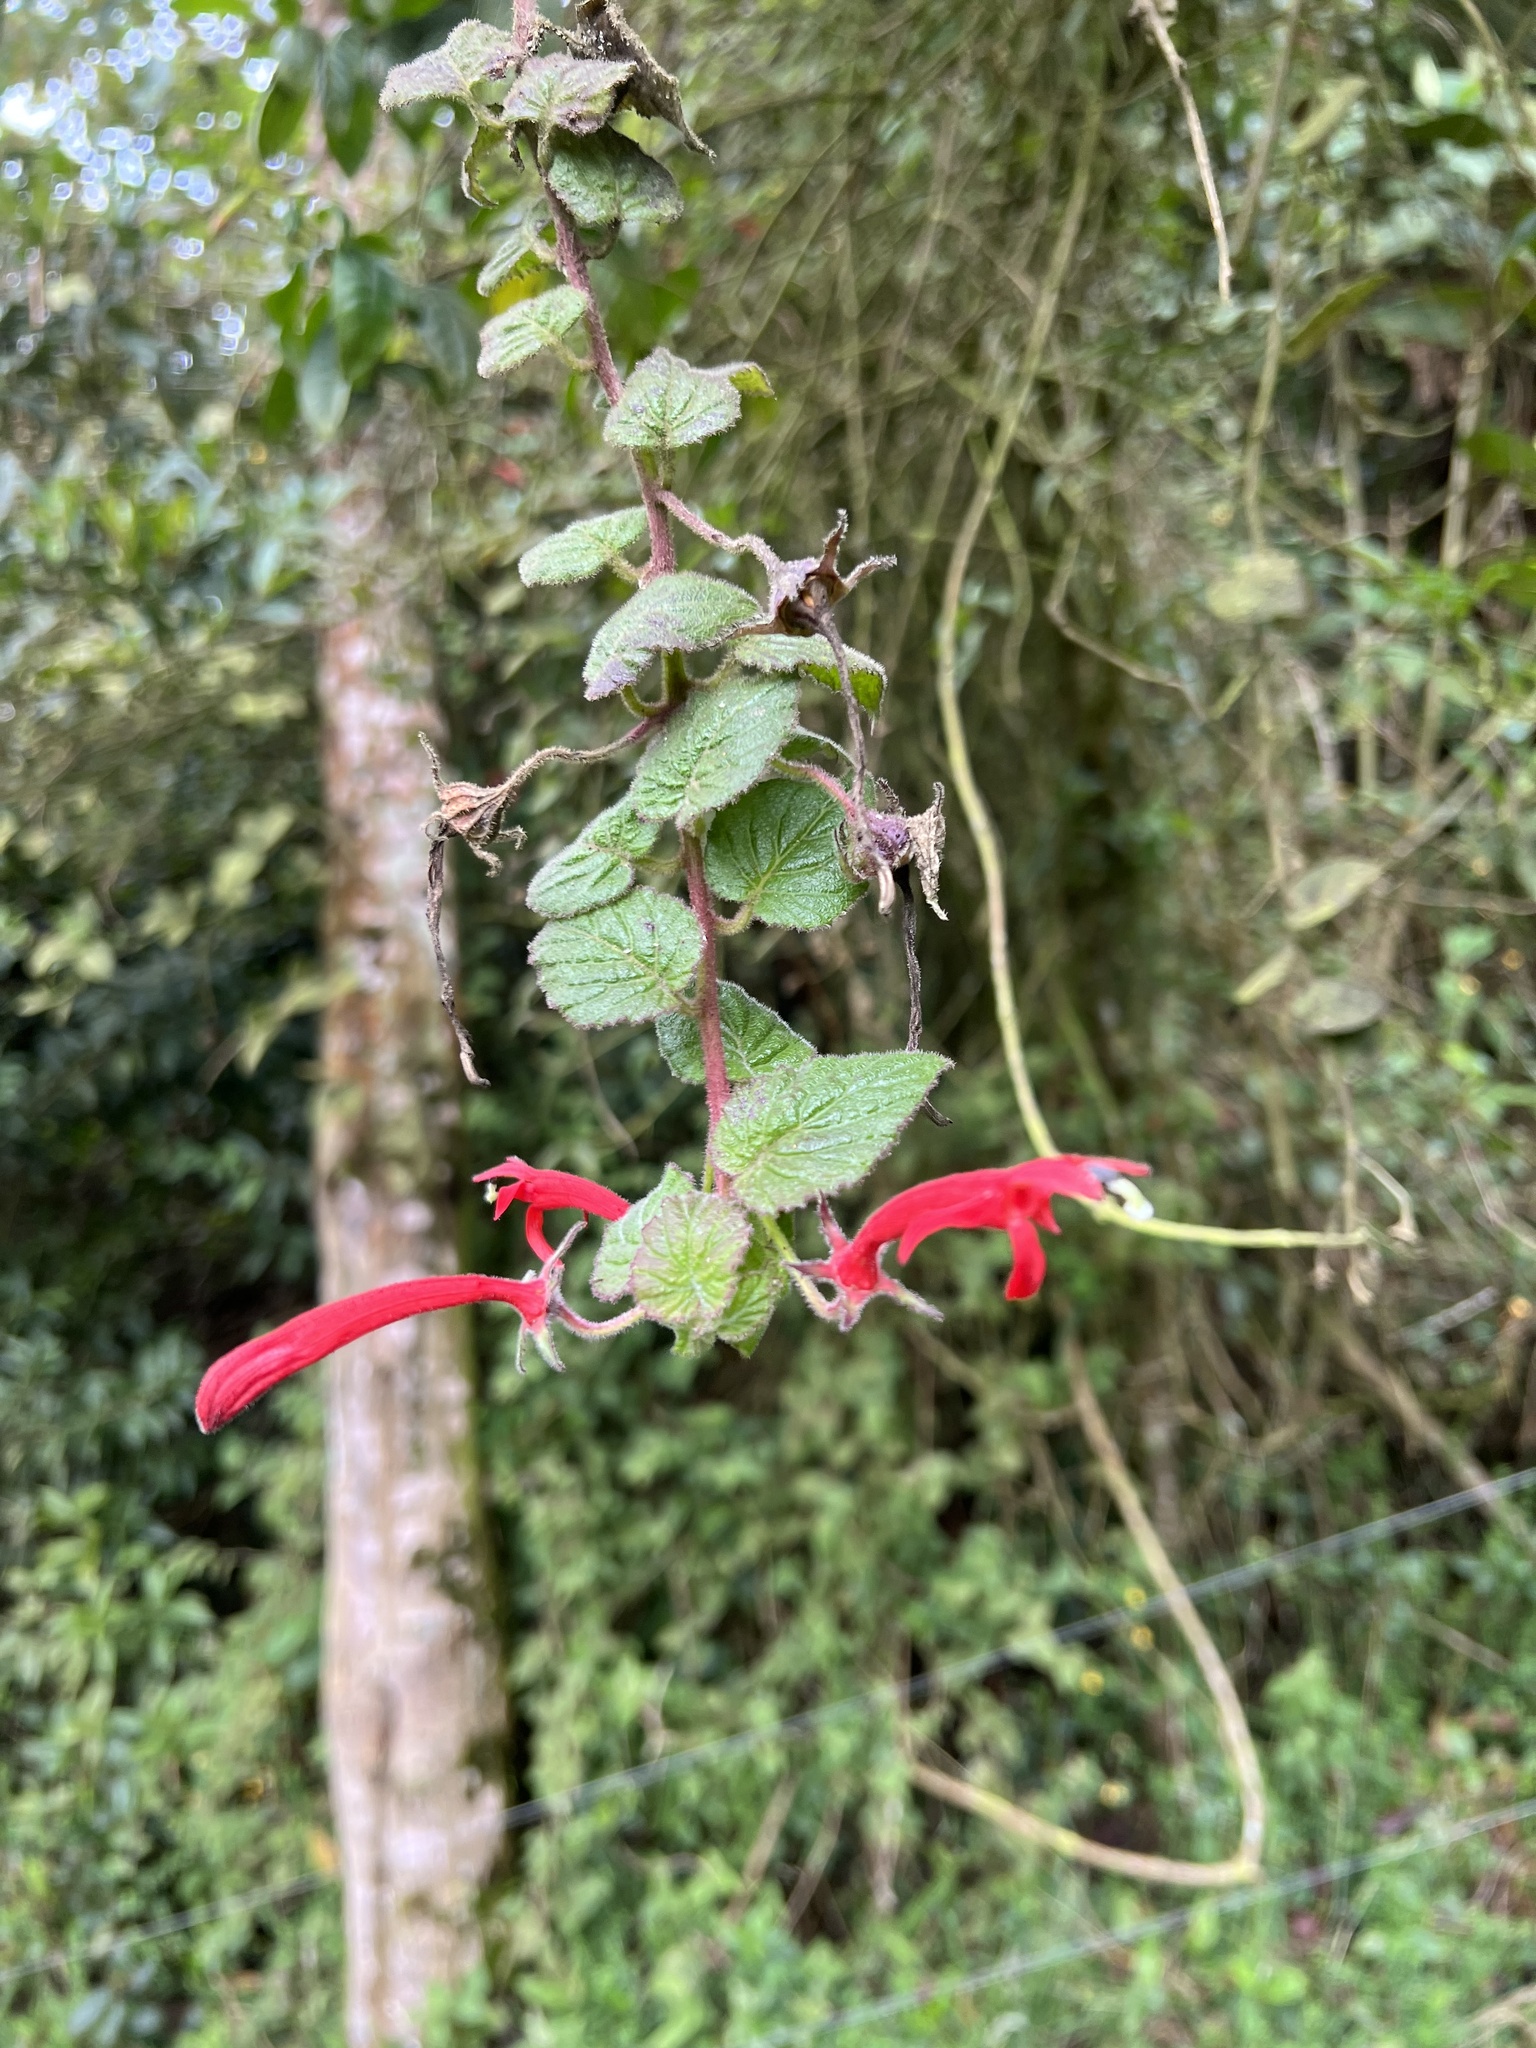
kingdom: Plantae
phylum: Tracheophyta
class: Magnoliopsida
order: Asterales
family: Campanulaceae
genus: Siphocampylus
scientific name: Siphocampylus hispidus
